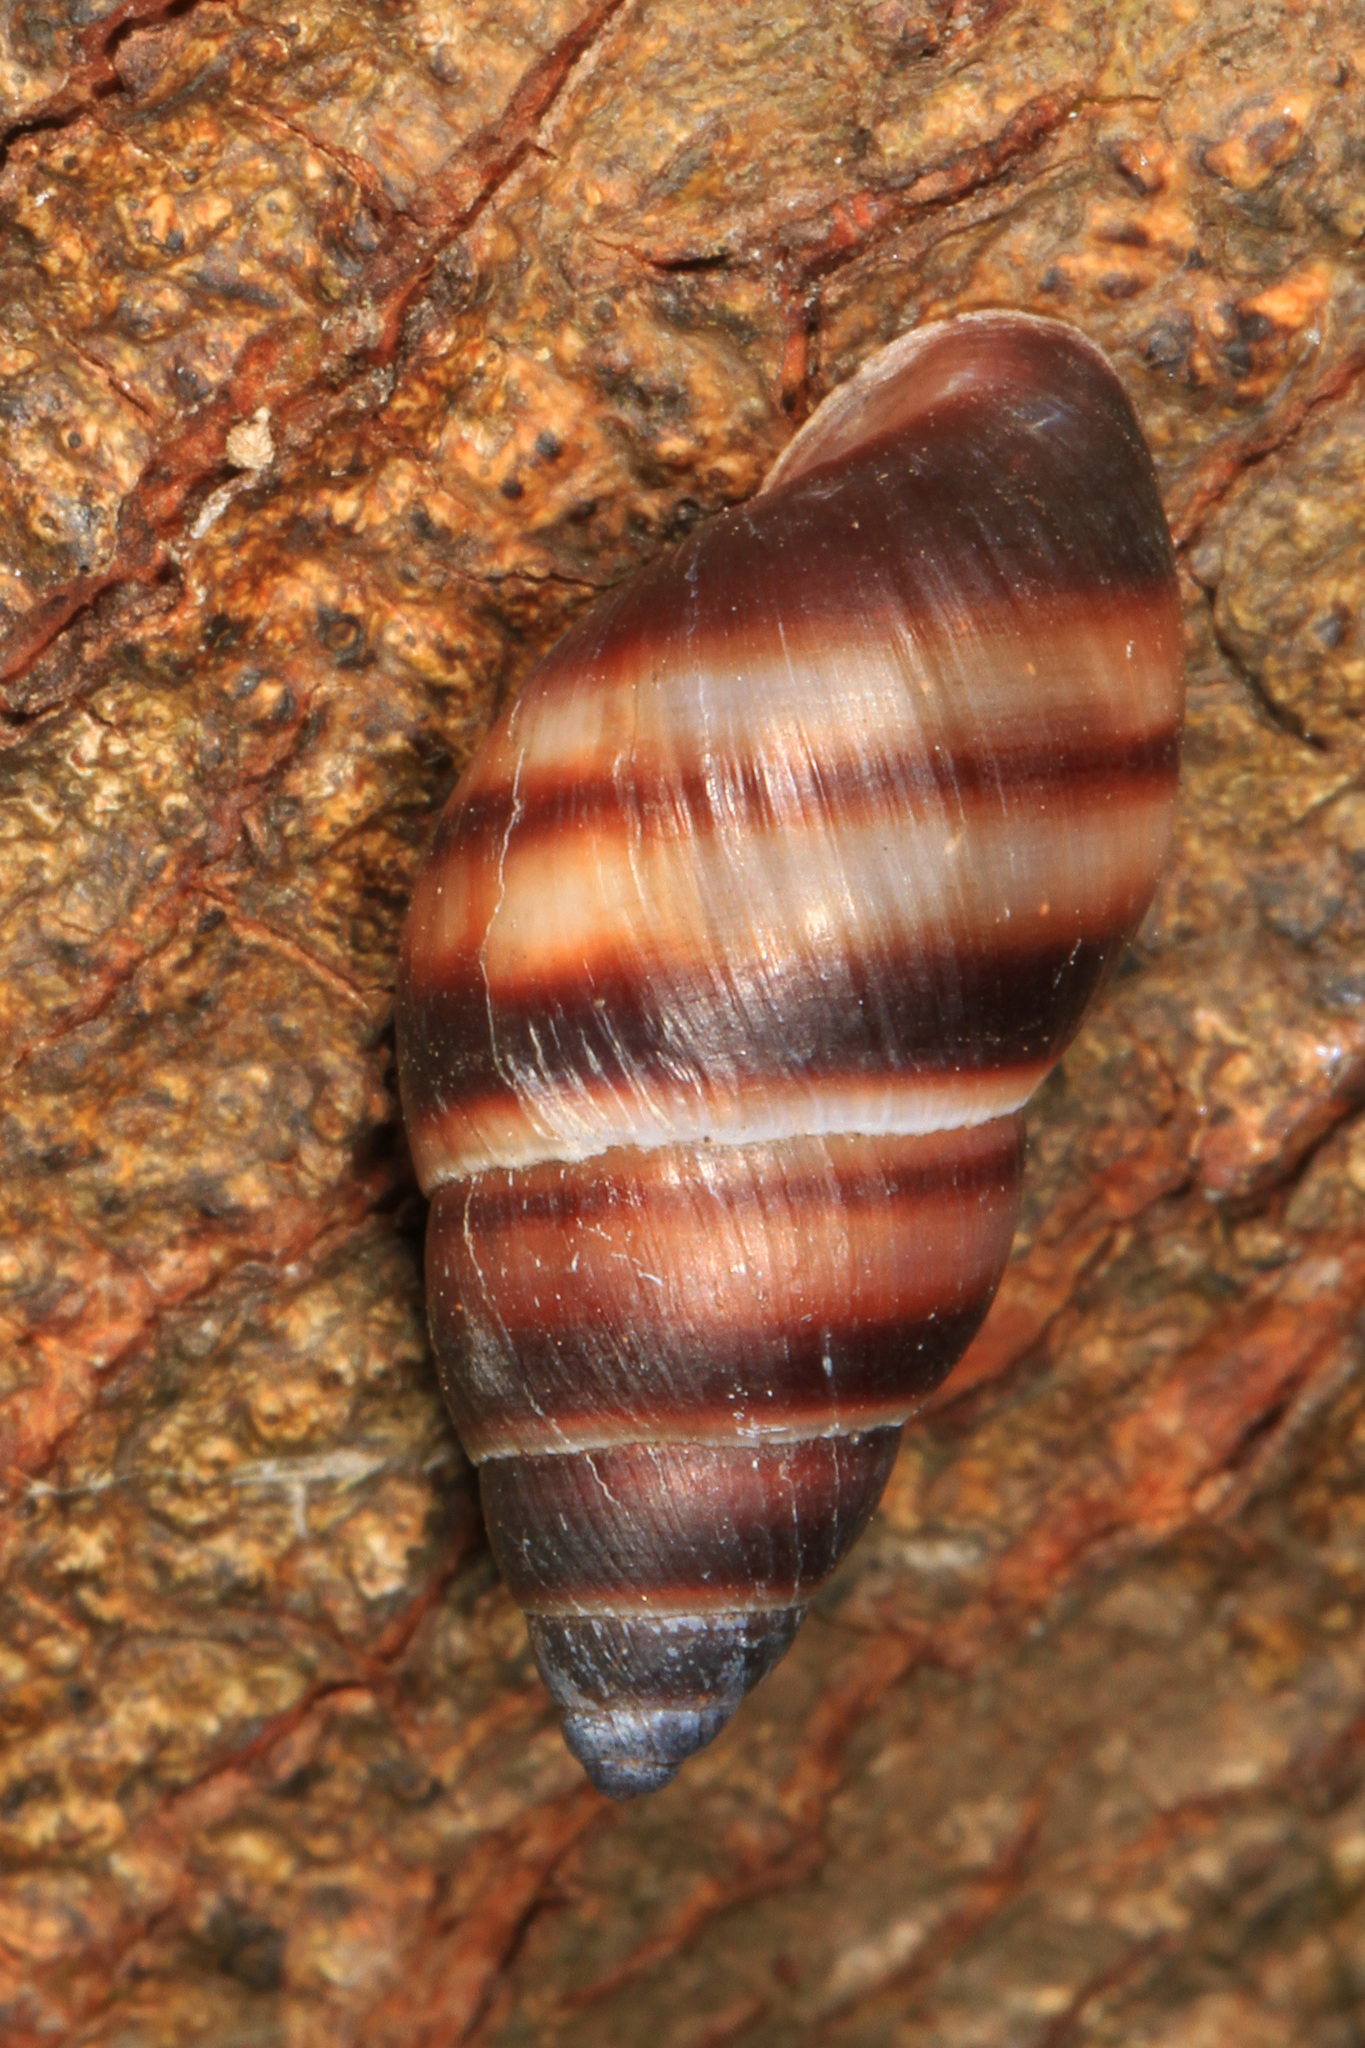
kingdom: Animalia
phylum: Mollusca
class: Gastropoda
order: Stylommatophora
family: Bulimulidae
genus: Bulimulus
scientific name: Bulimulus guadalupensis
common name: West indian bulimulus
